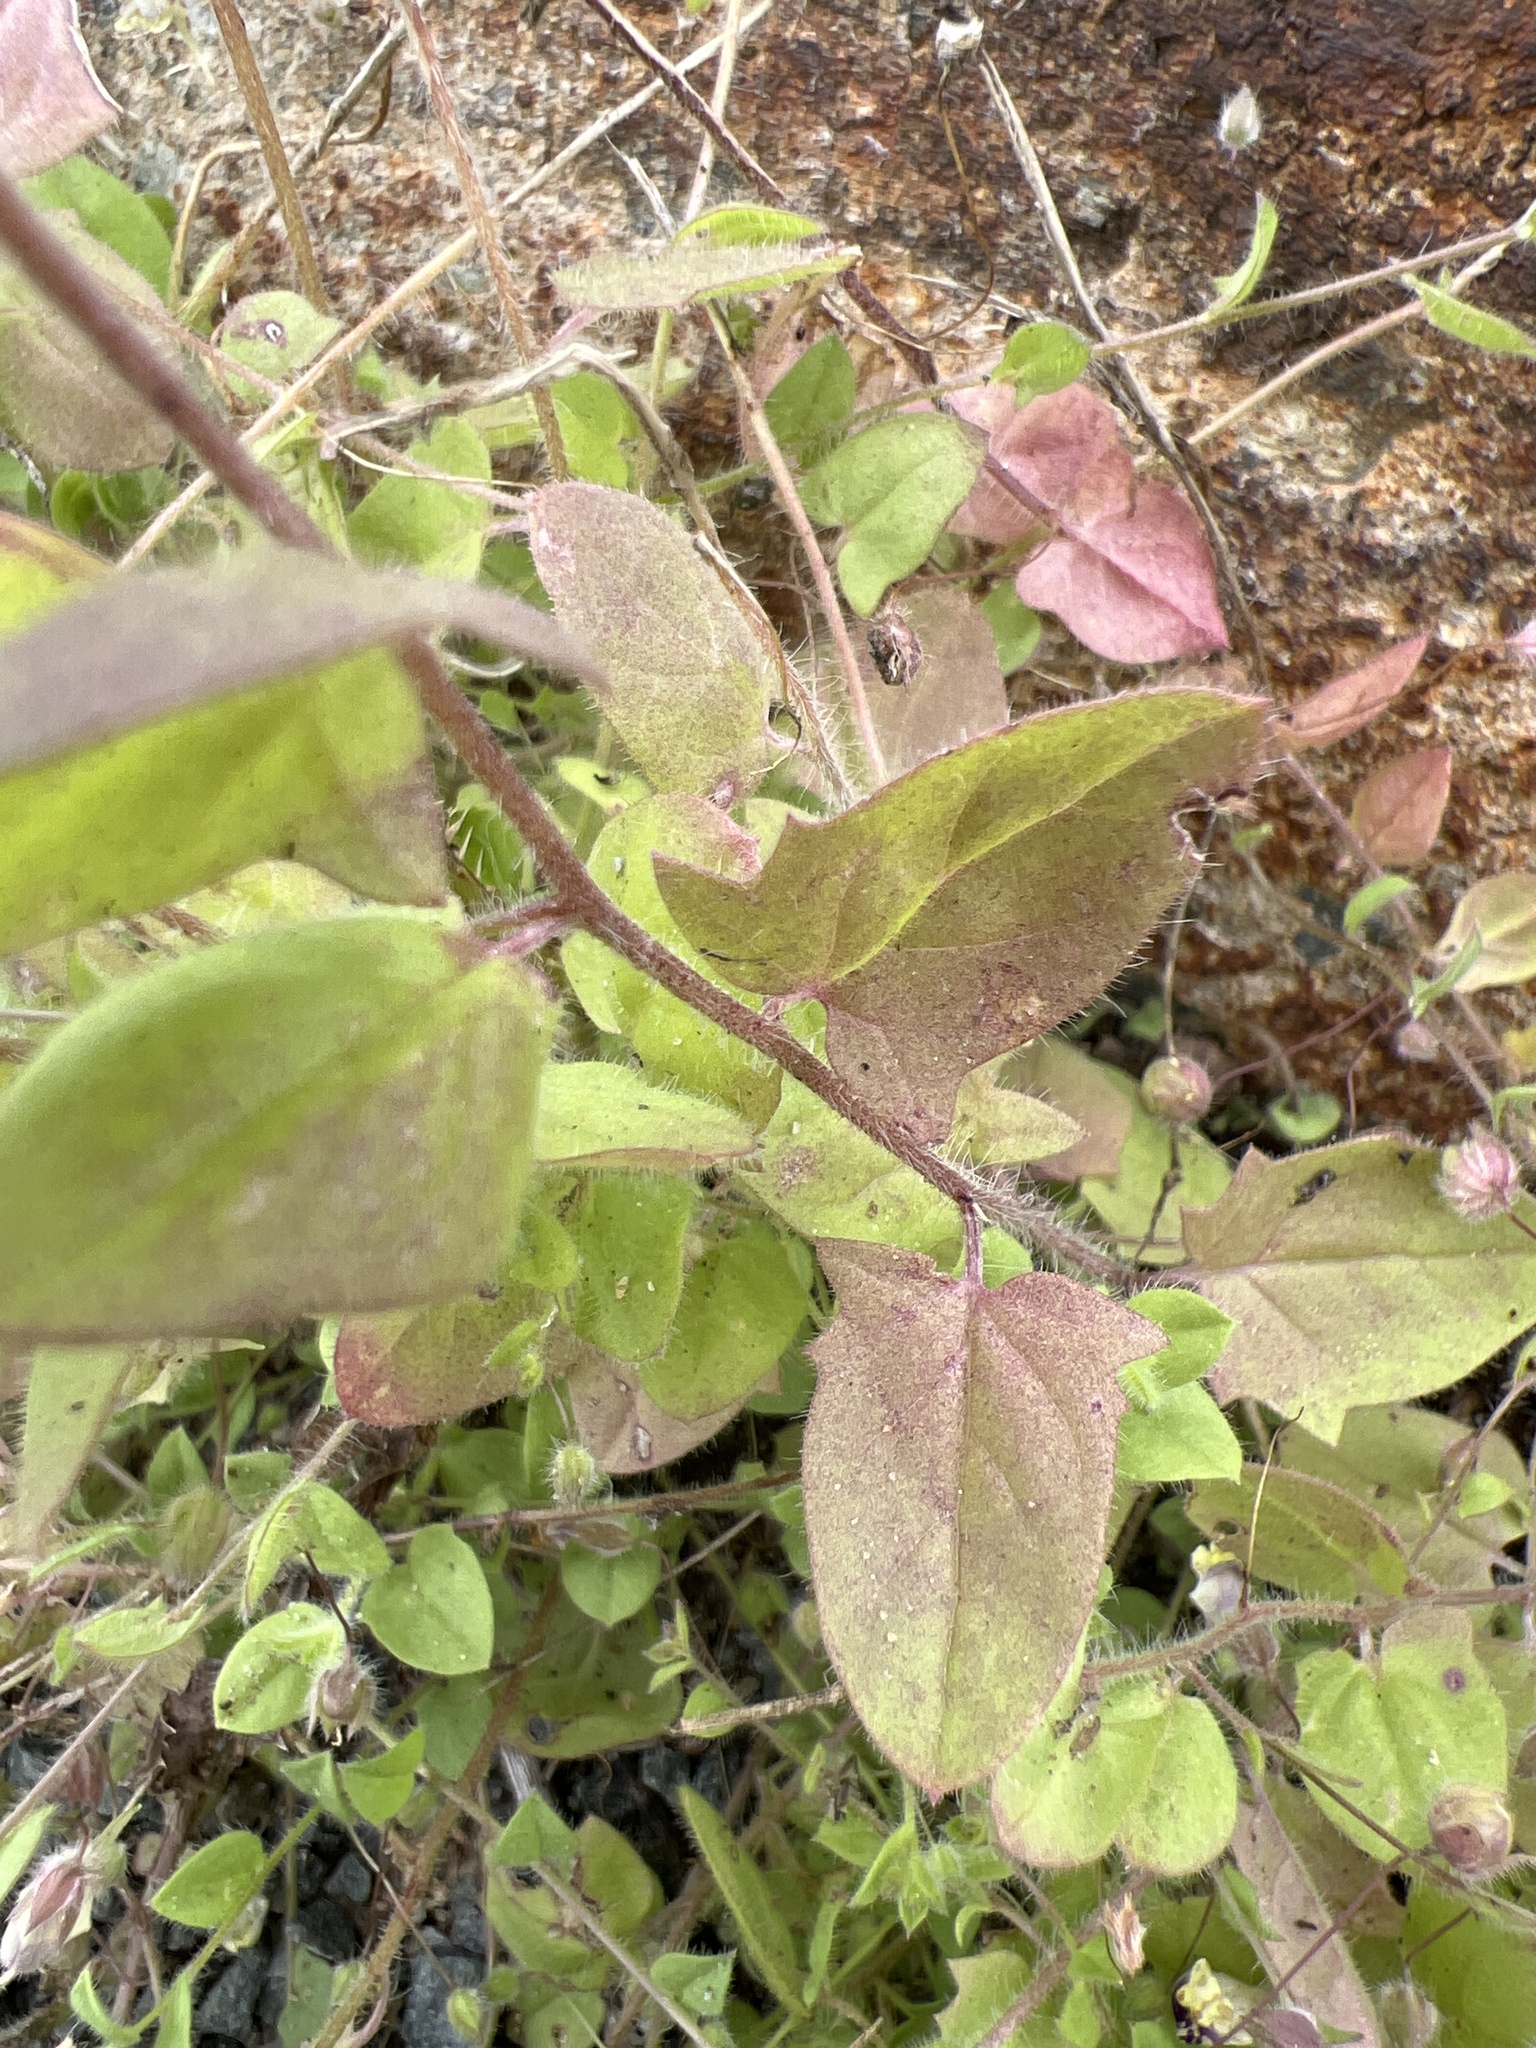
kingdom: Plantae
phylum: Tracheophyta
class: Magnoliopsida
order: Lamiales
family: Plantaginaceae
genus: Kickxia
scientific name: Kickxia elatine
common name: Sharp-leaved fluellen
